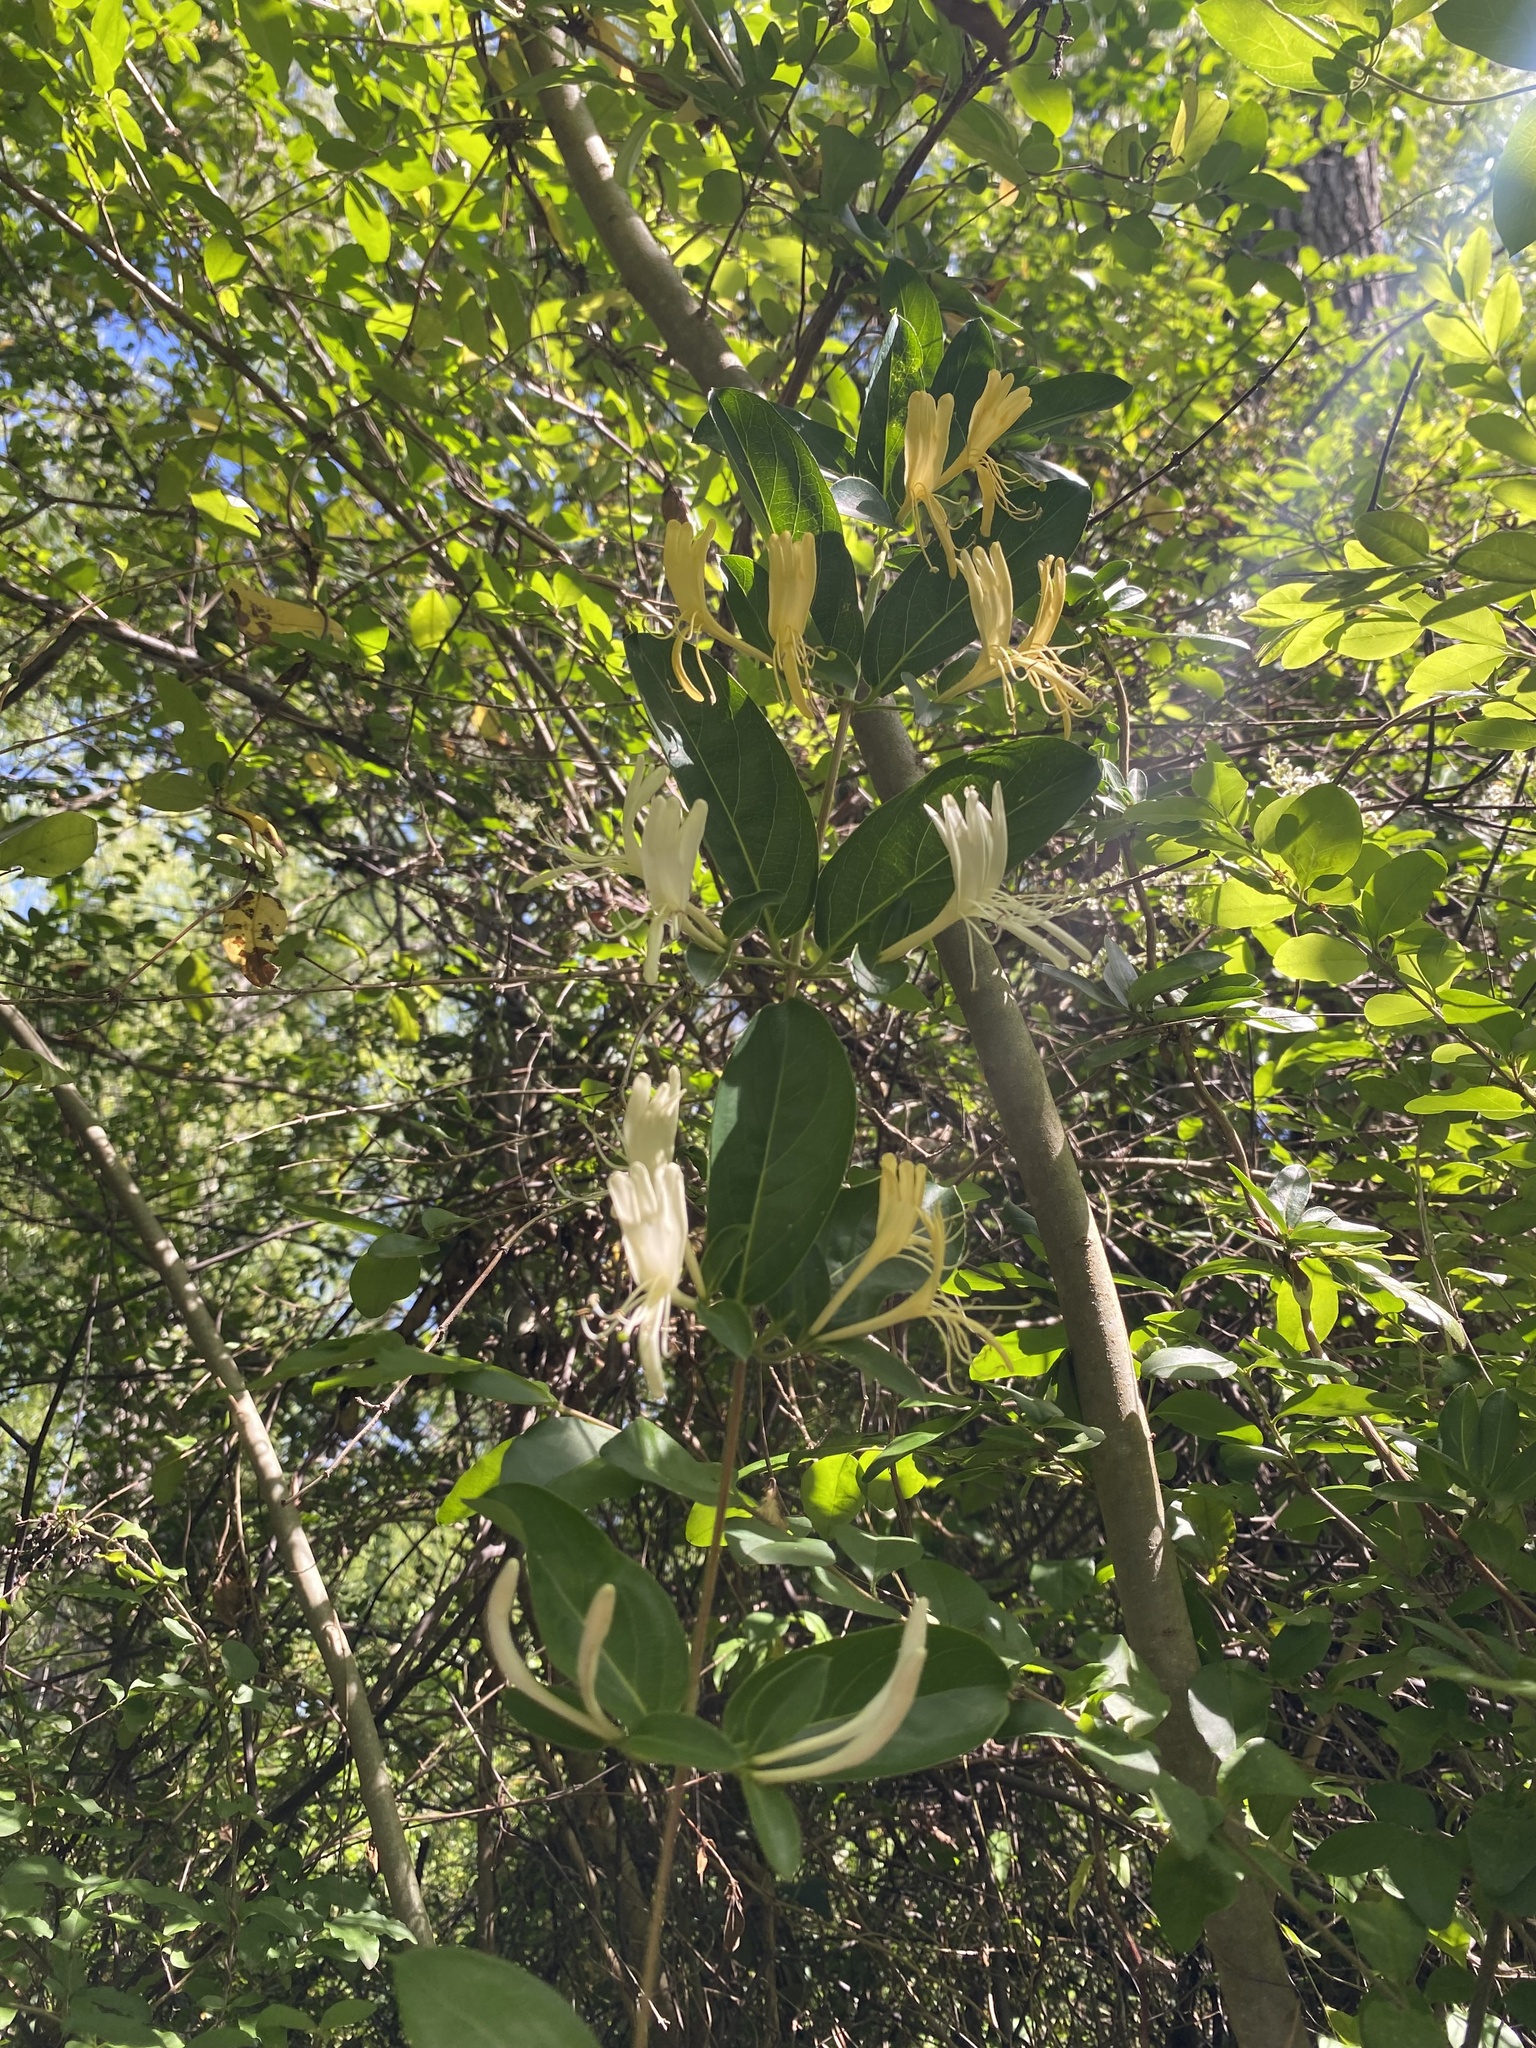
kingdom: Plantae
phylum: Tracheophyta
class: Magnoliopsida
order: Dipsacales
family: Caprifoliaceae
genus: Lonicera
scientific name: Lonicera japonica
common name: Japanese honeysuckle
